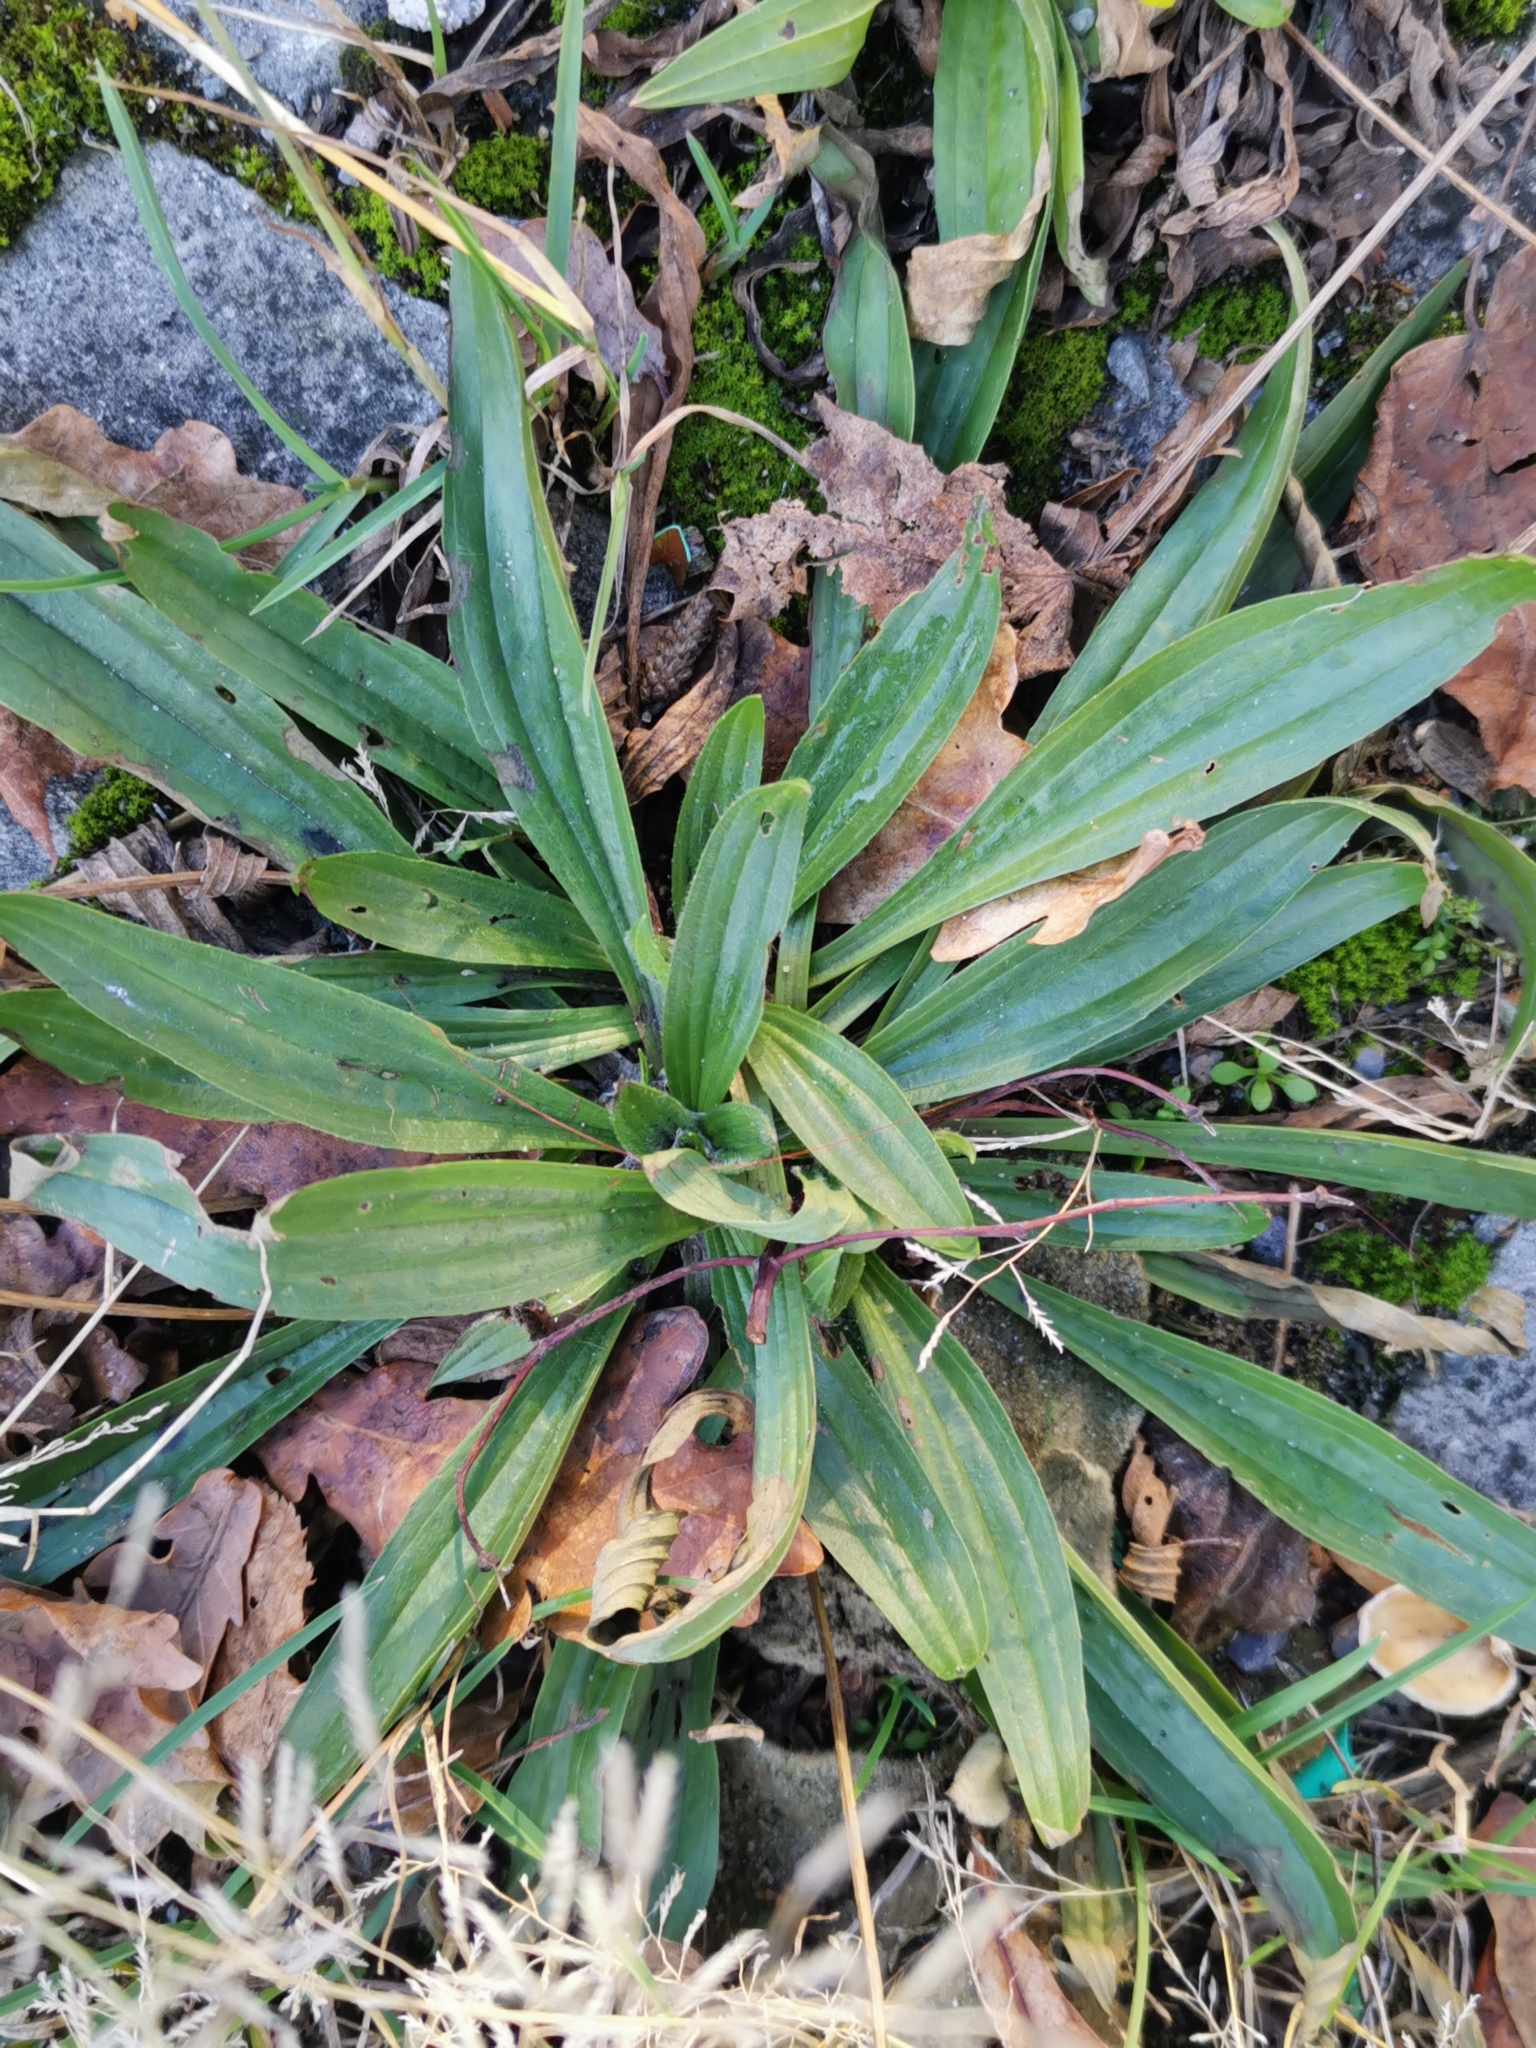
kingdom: Plantae
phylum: Tracheophyta
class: Magnoliopsida
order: Lamiales
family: Plantaginaceae
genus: Plantago
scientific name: Plantago lanceolata
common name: Ribwort plantain
